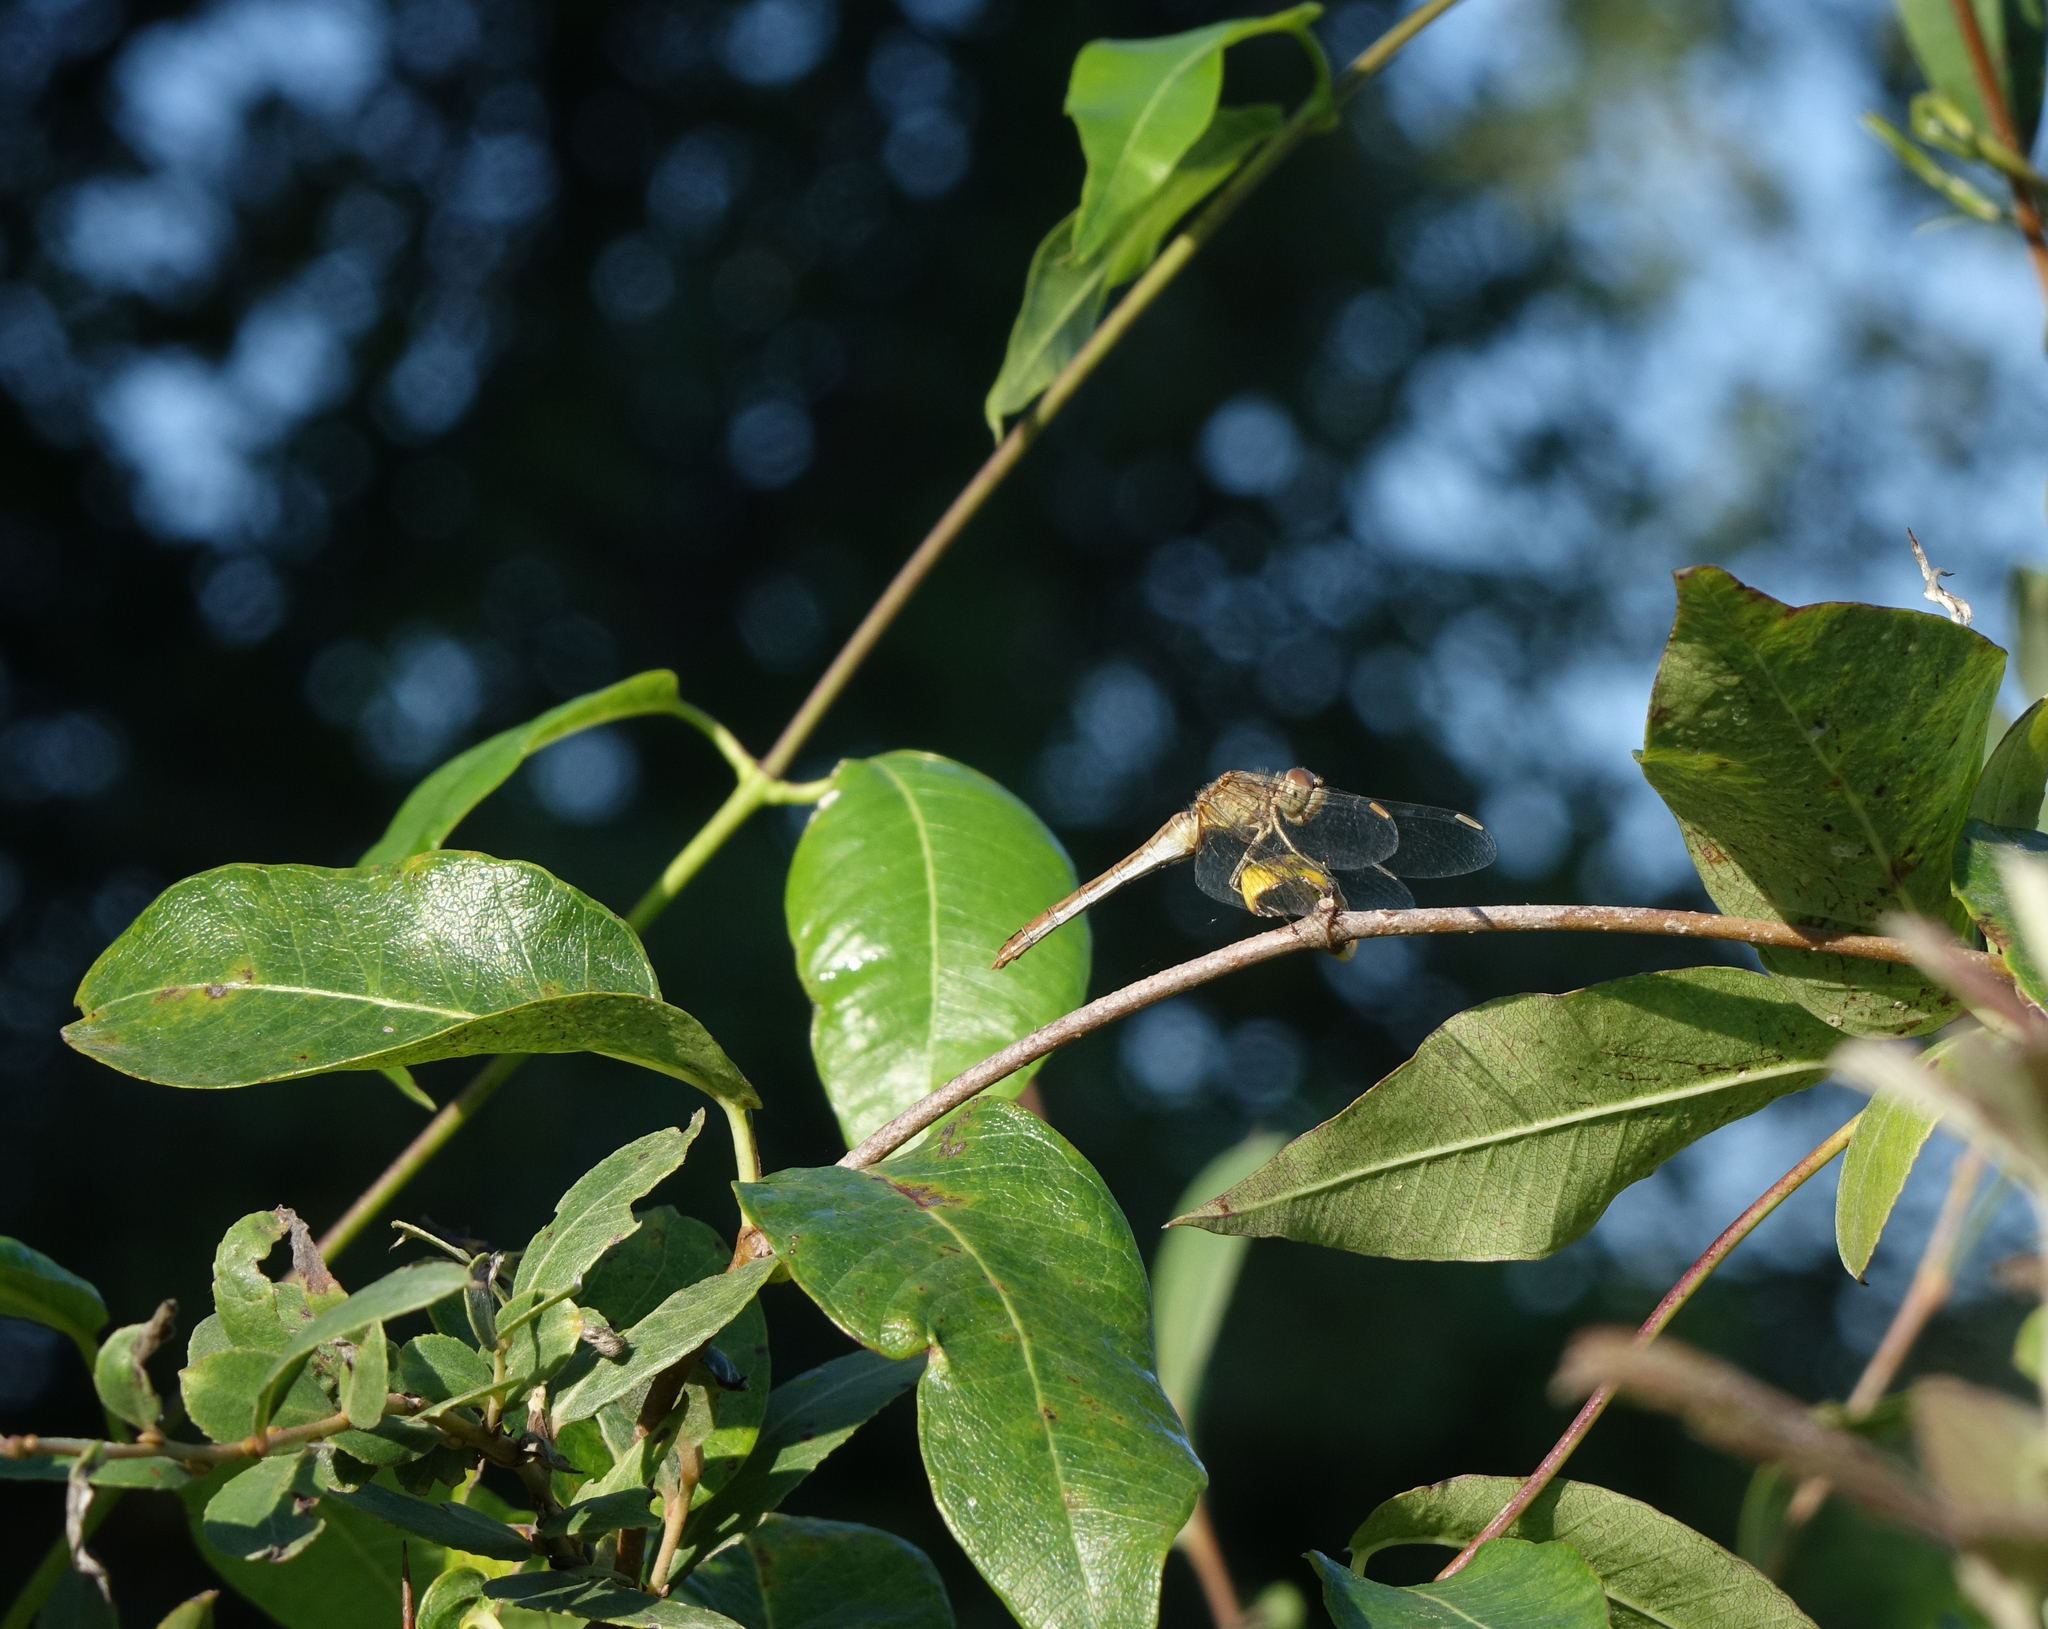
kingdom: Animalia
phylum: Arthropoda
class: Insecta
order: Odonata
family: Libellulidae
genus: Sympetrum
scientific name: Sympetrum meridionale
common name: Southern darter
